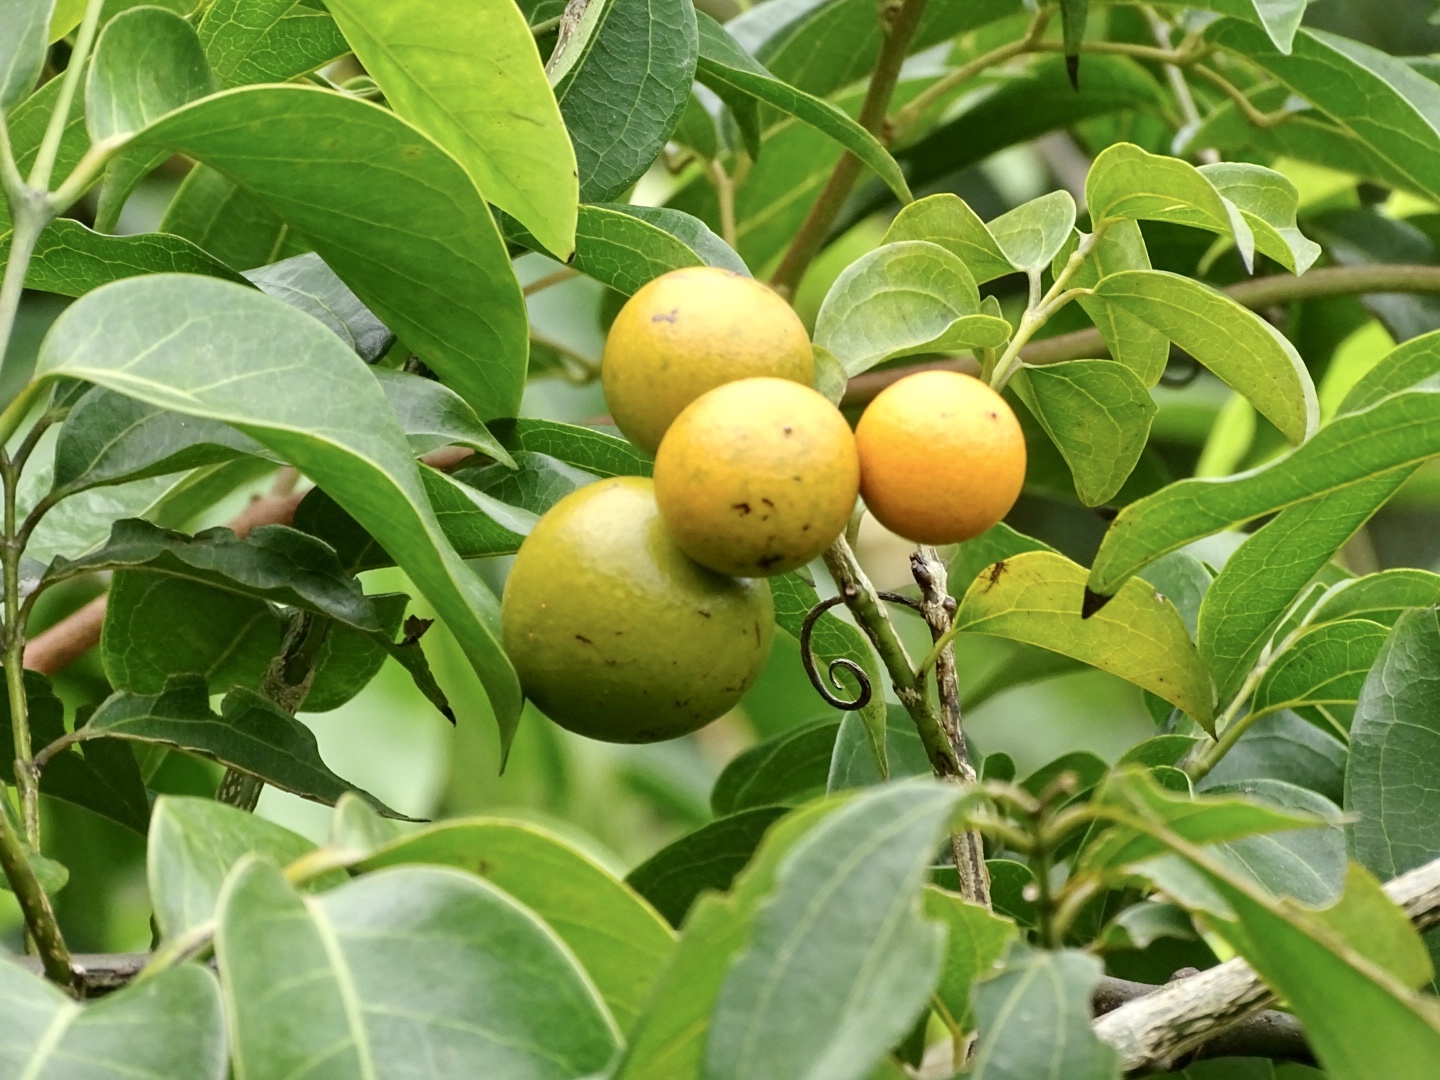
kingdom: Plantae
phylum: Tracheophyta
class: Magnoliopsida
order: Gentianales
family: Loganiaceae
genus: Strychnos
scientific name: Strychnos angustiflora
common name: Narrow-flower poisonnut
